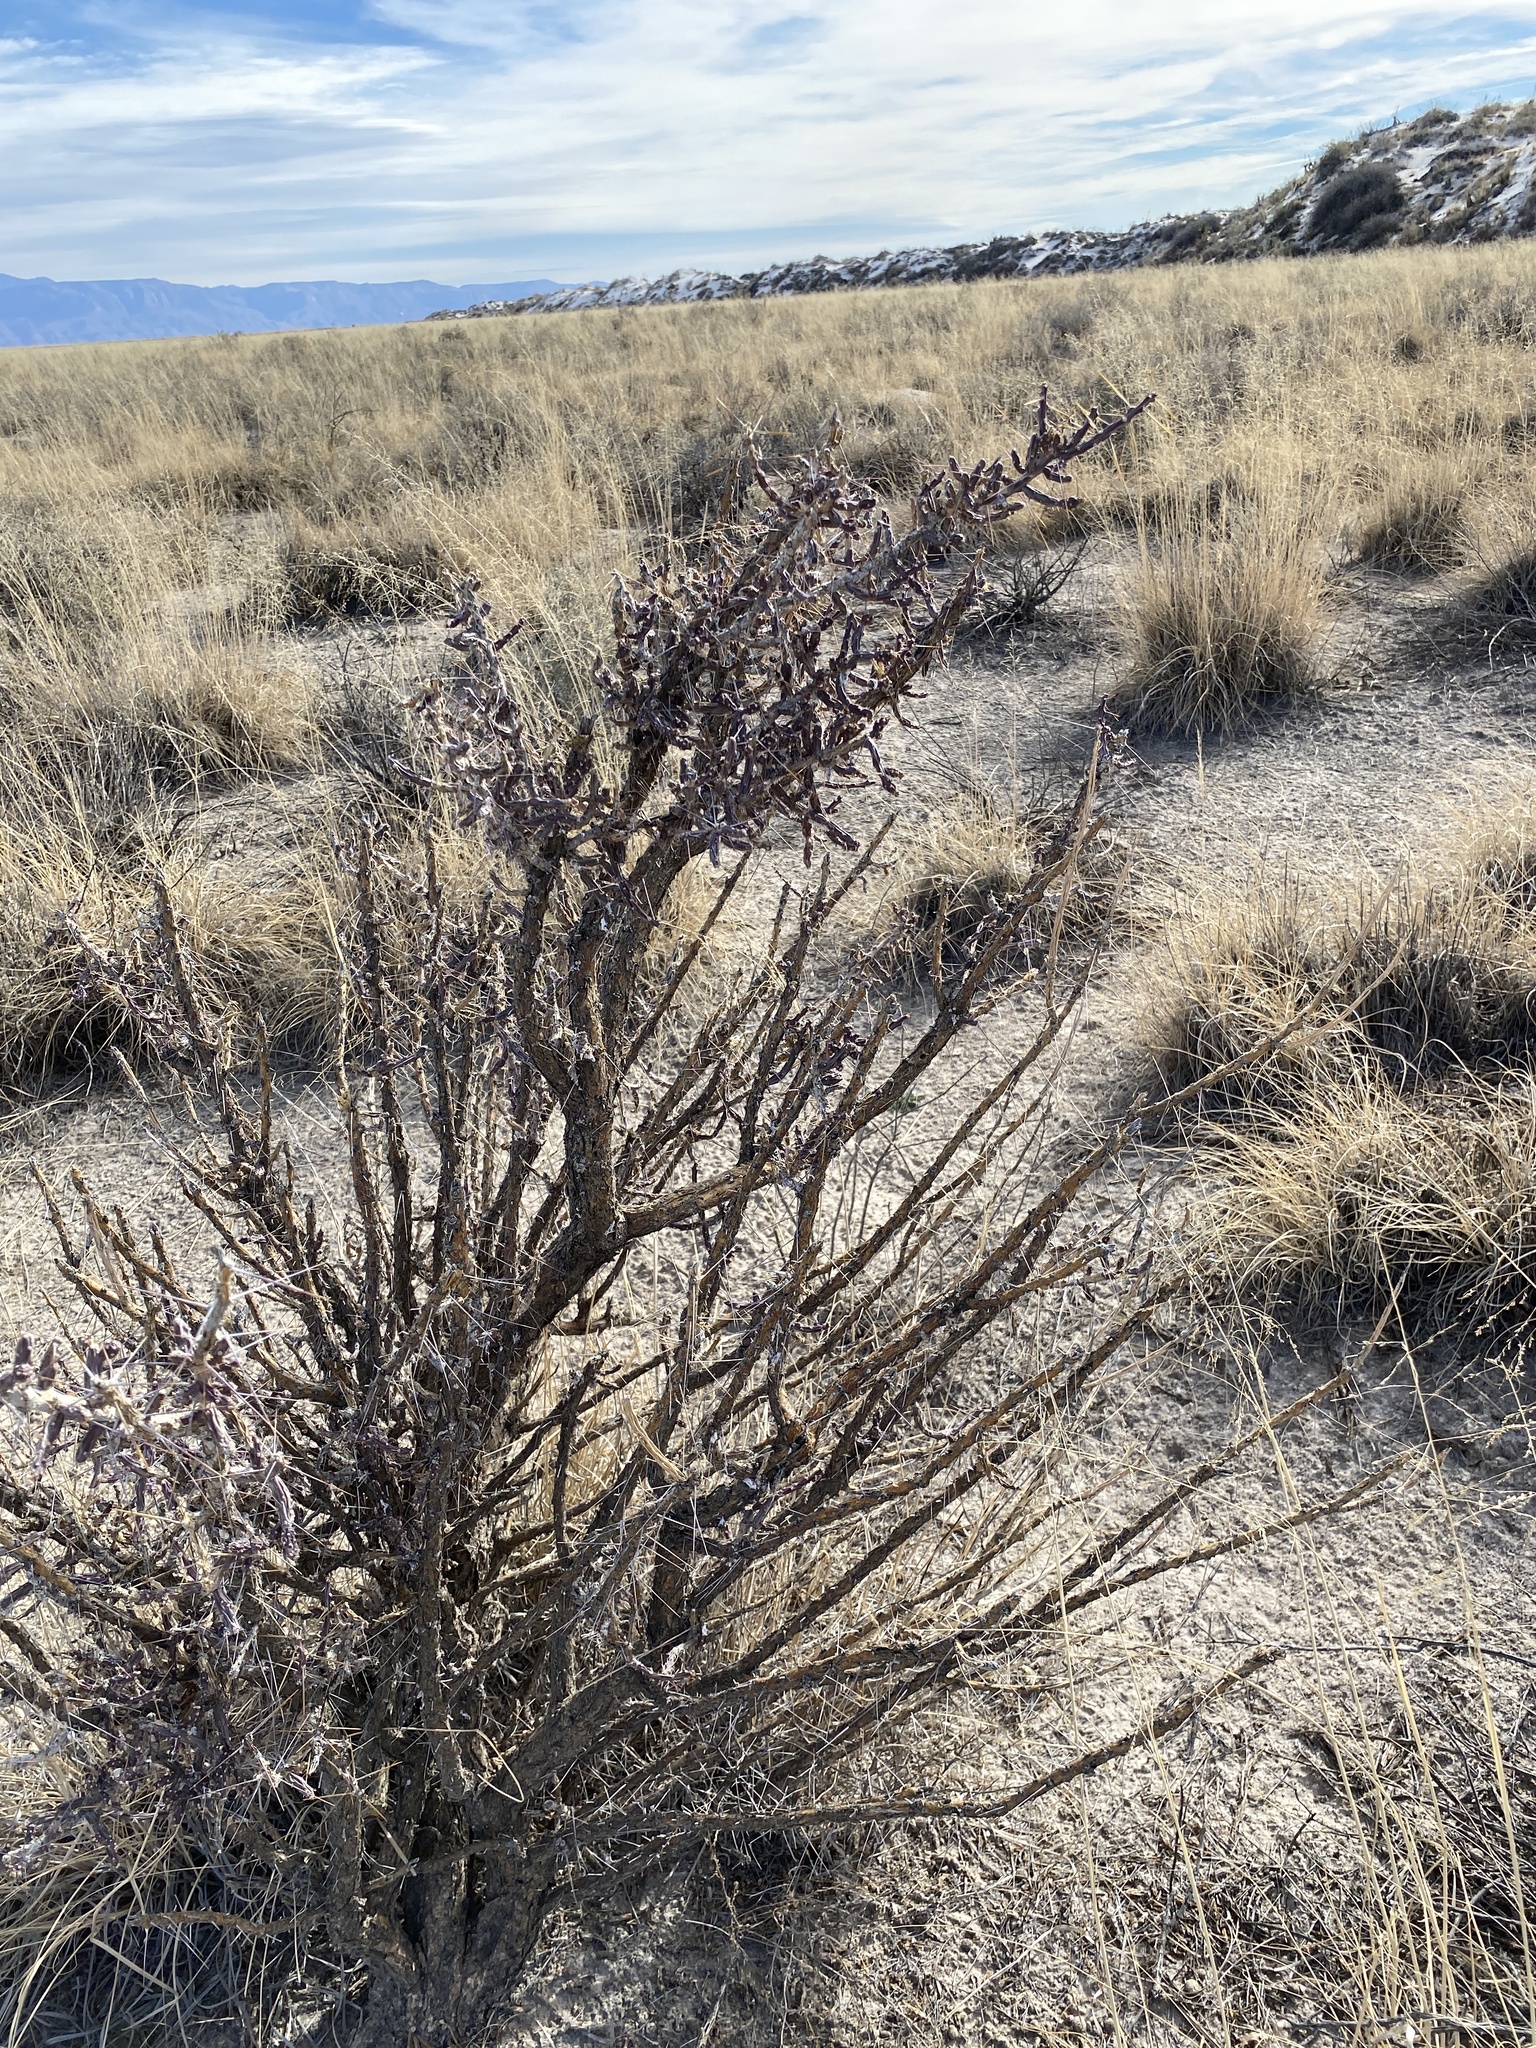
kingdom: Plantae
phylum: Tracheophyta
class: Magnoliopsida
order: Caryophyllales
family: Cactaceae
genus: Cylindropuntia
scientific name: Cylindropuntia leptocaulis
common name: Christmas cactus
